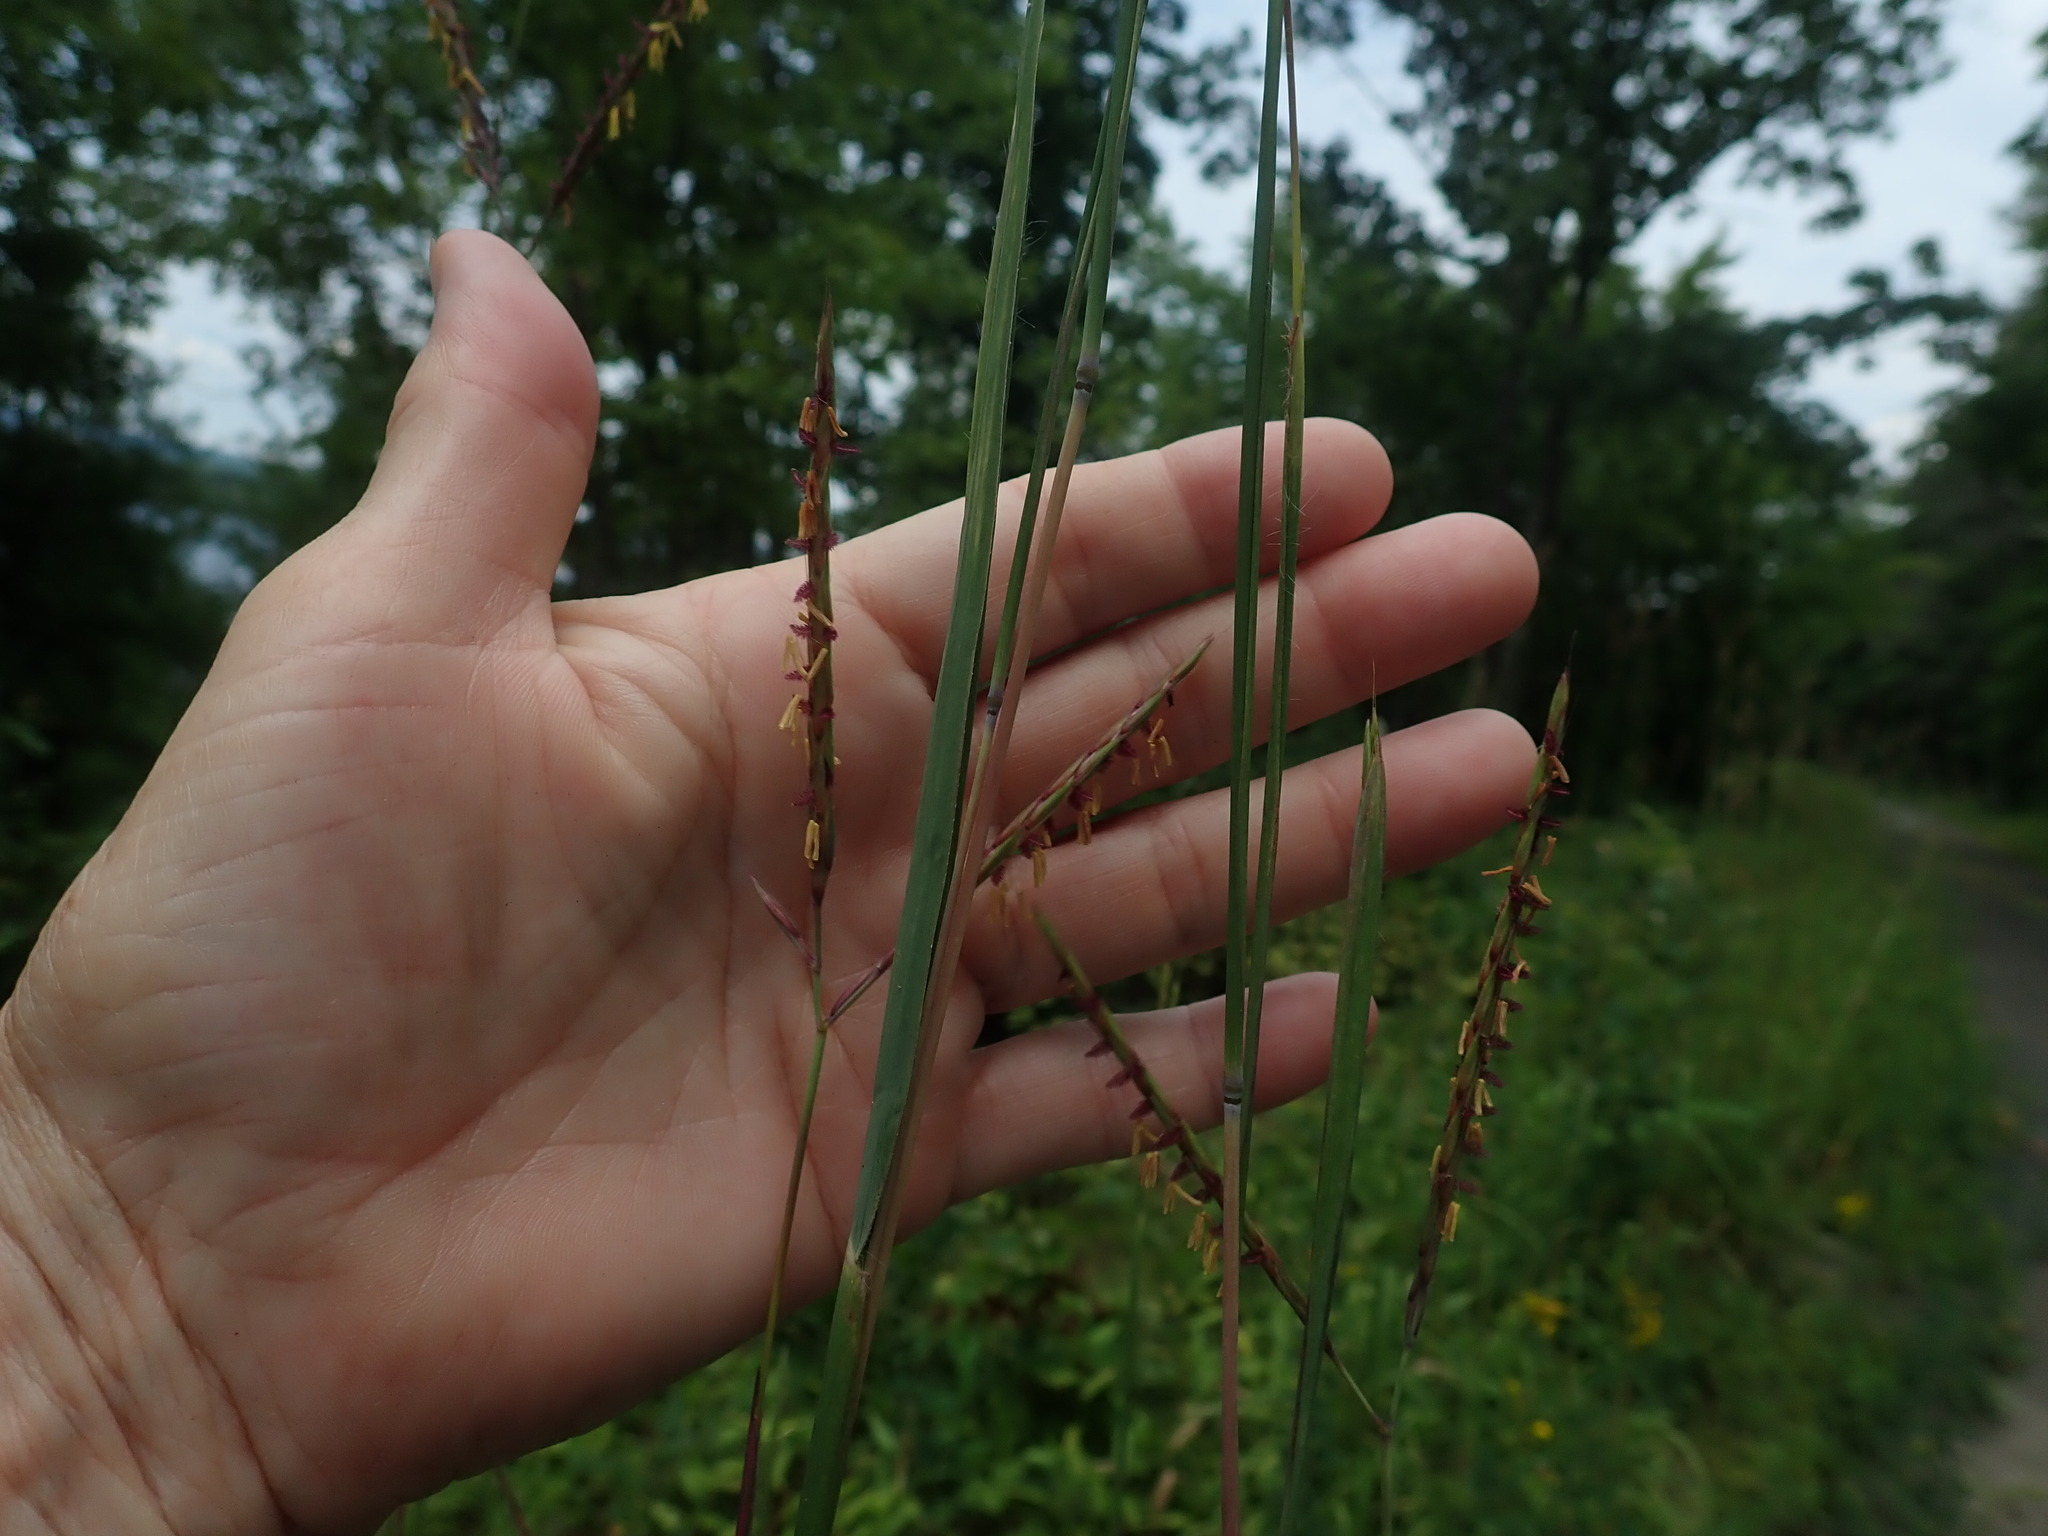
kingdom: Plantae
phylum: Tracheophyta
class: Liliopsida
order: Poales
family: Poaceae
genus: Andropogon
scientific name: Andropogon gerardi
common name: Big bluestem
